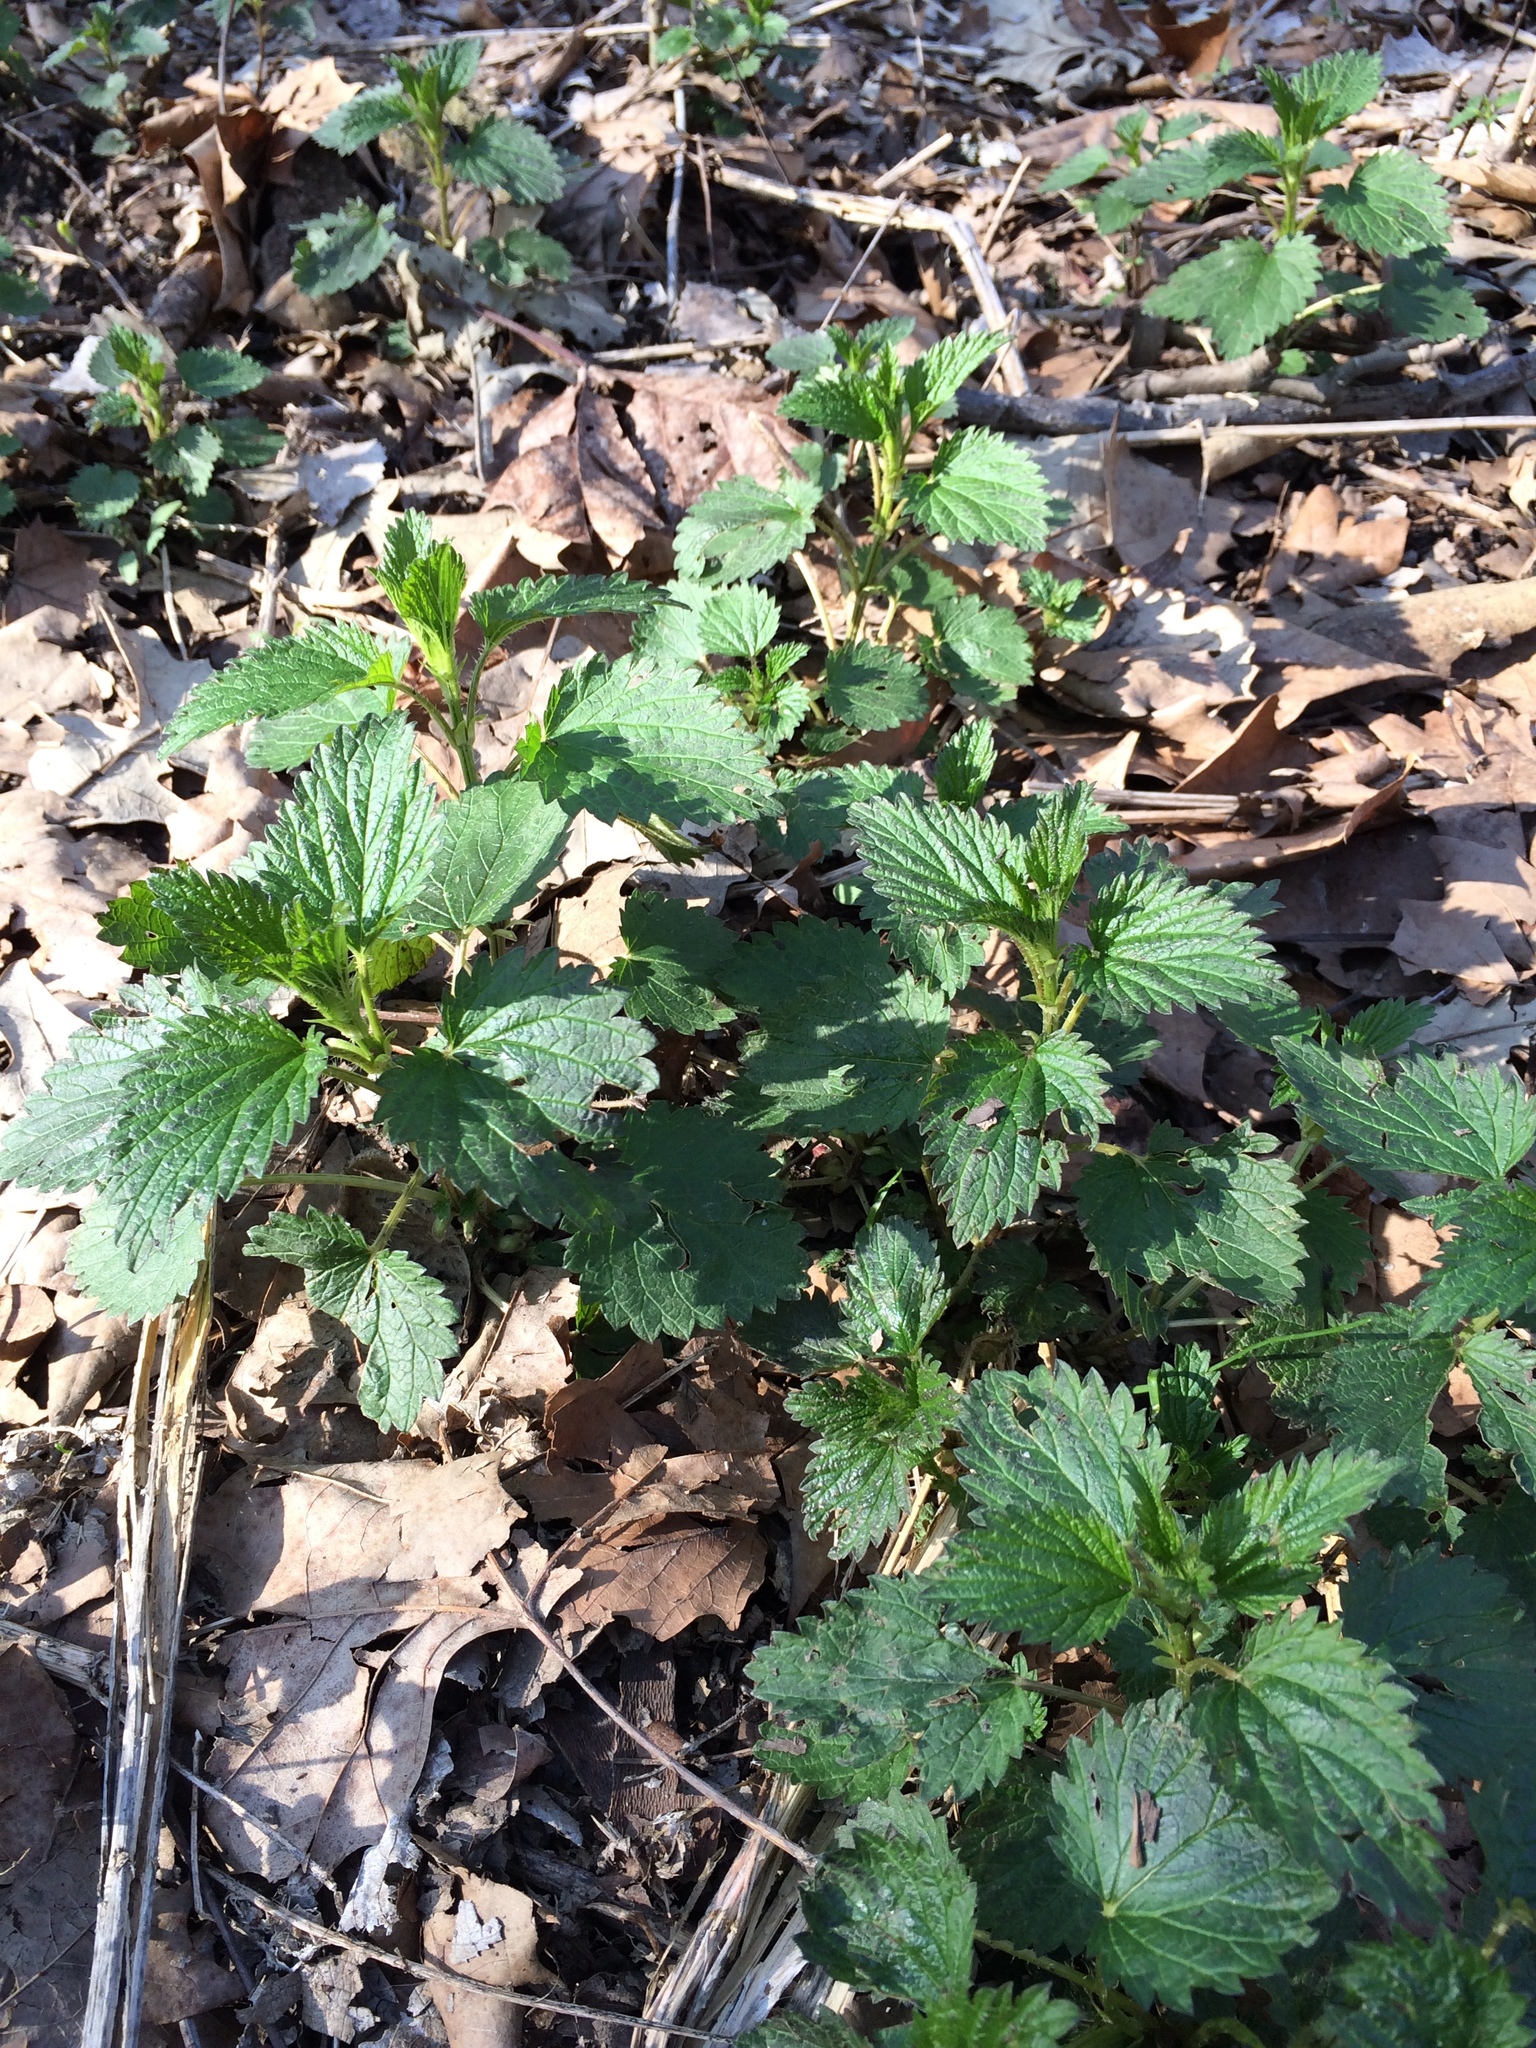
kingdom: Plantae
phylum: Tracheophyta
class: Magnoliopsida
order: Rosales
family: Urticaceae
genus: Urtica
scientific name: Urtica dioica
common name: Common nettle
